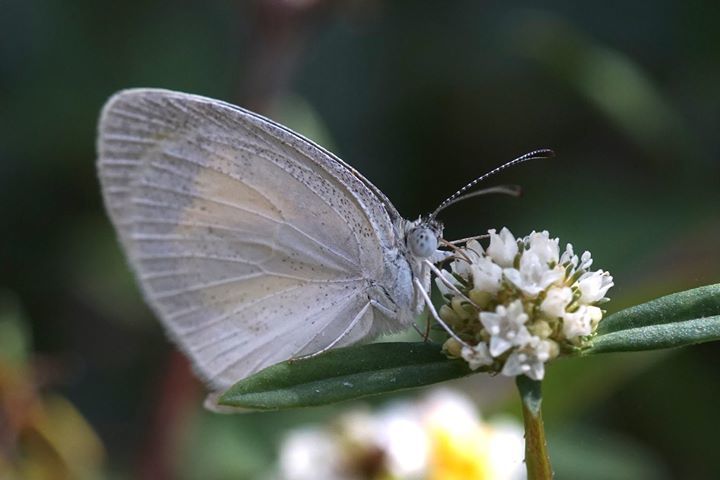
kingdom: Animalia
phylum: Arthropoda
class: Insecta
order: Lepidoptera
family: Pieridae
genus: Eurema
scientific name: Eurema daira
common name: Barred sulphur
